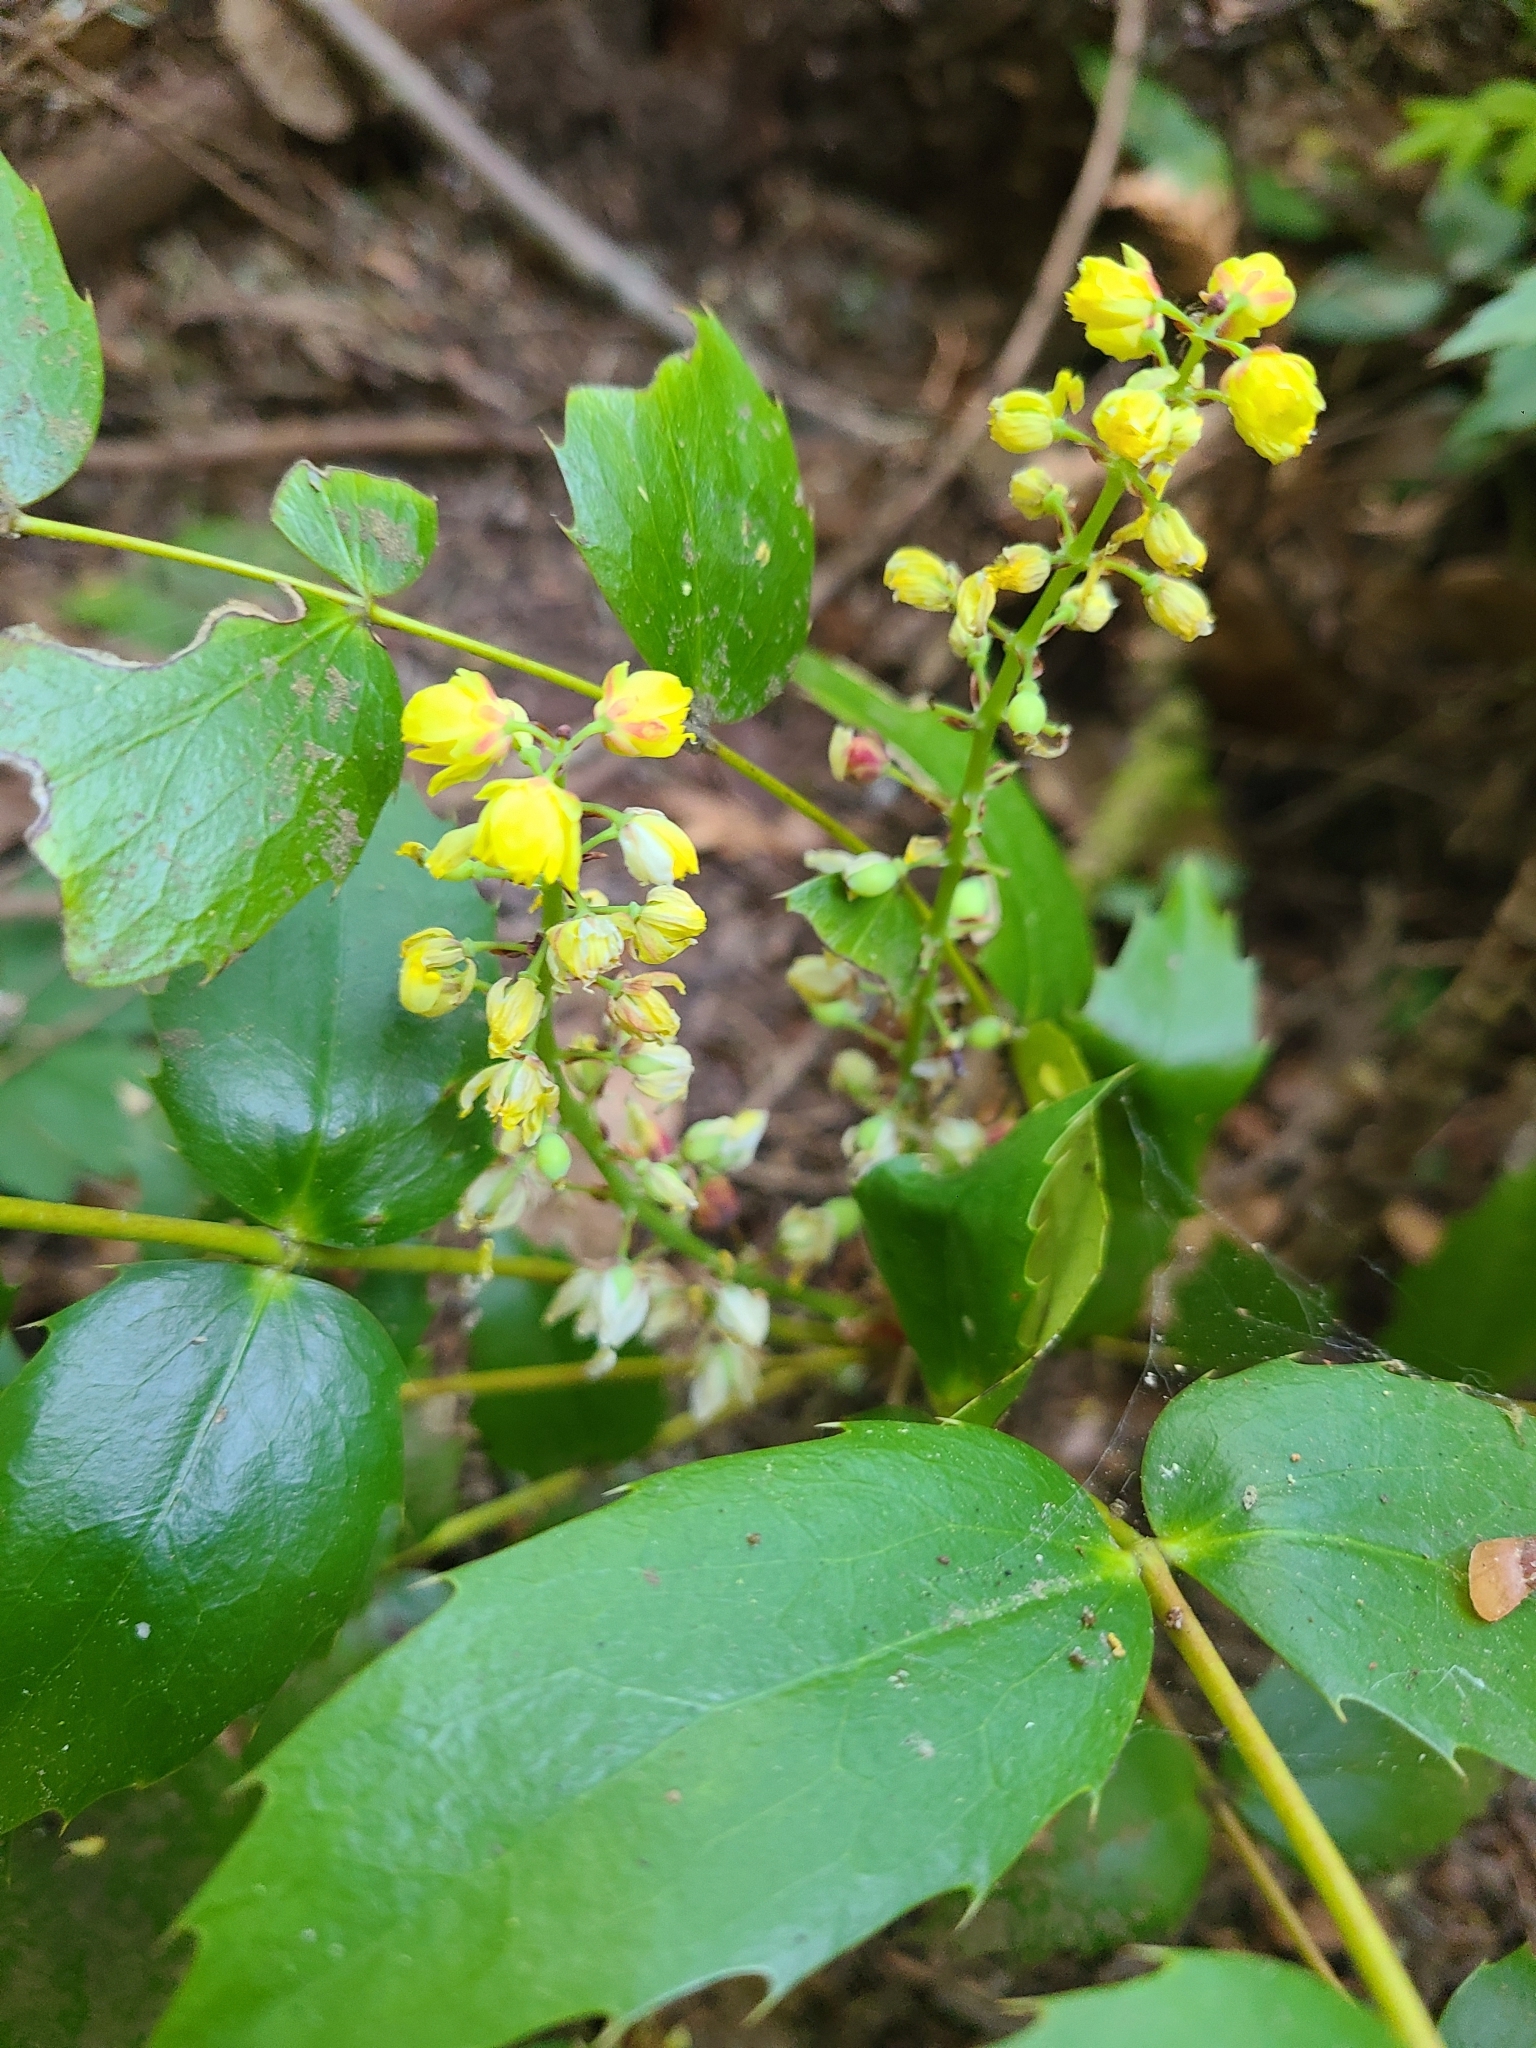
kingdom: Plantae
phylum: Tracheophyta
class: Magnoliopsida
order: Ranunculales
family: Berberidaceae
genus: Mahonia
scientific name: Mahonia nervosa
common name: Cascade oregon-grape
